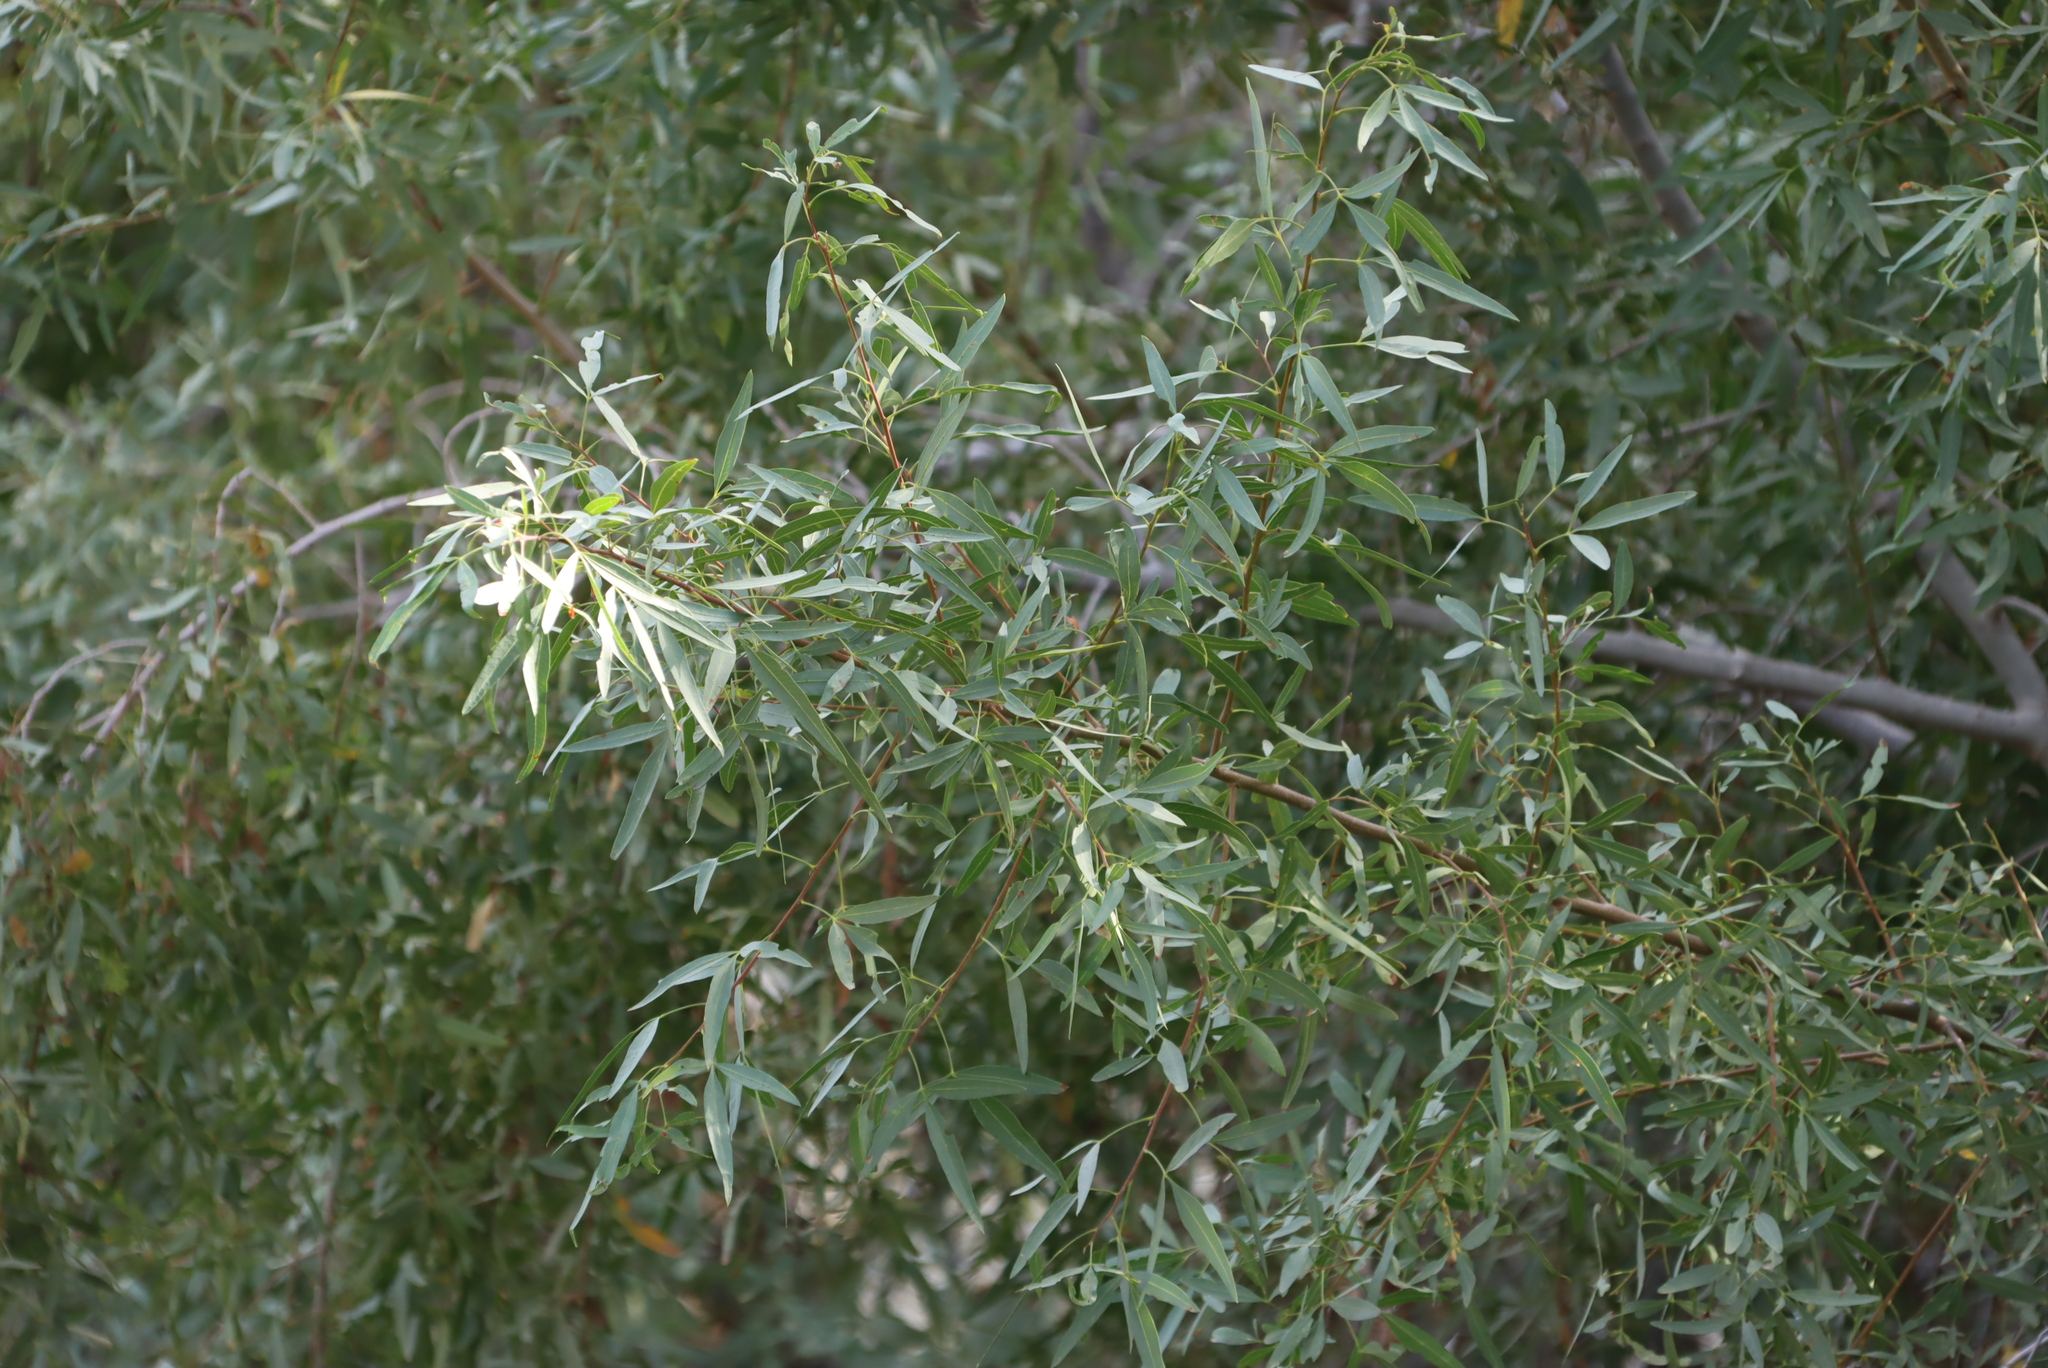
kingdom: Plantae
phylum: Tracheophyta
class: Magnoliopsida
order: Sapindales
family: Anacardiaceae
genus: Searsia
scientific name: Searsia pendulina
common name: White karee
